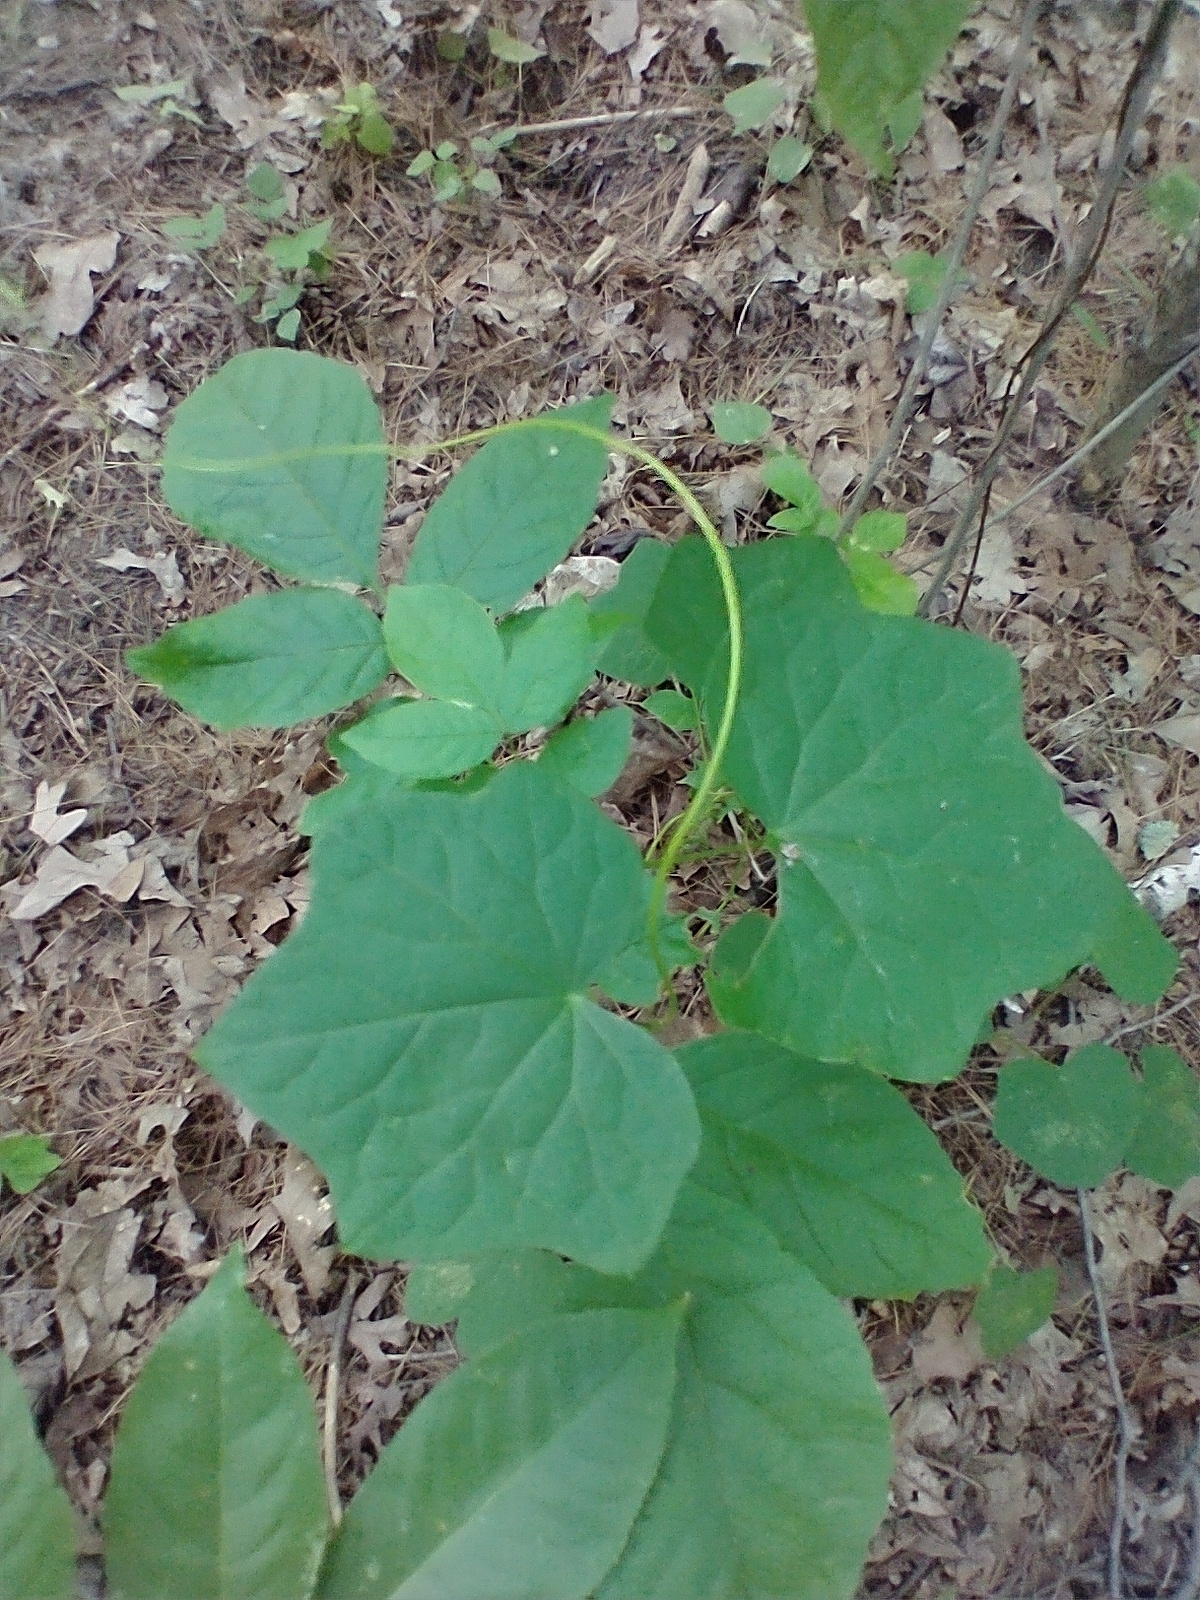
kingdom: Plantae
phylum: Tracheophyta
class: Magnoliopsida
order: Ranunculales
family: Menispermaceae
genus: Menispermum
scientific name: Menispermum canadense
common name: Moonseed
